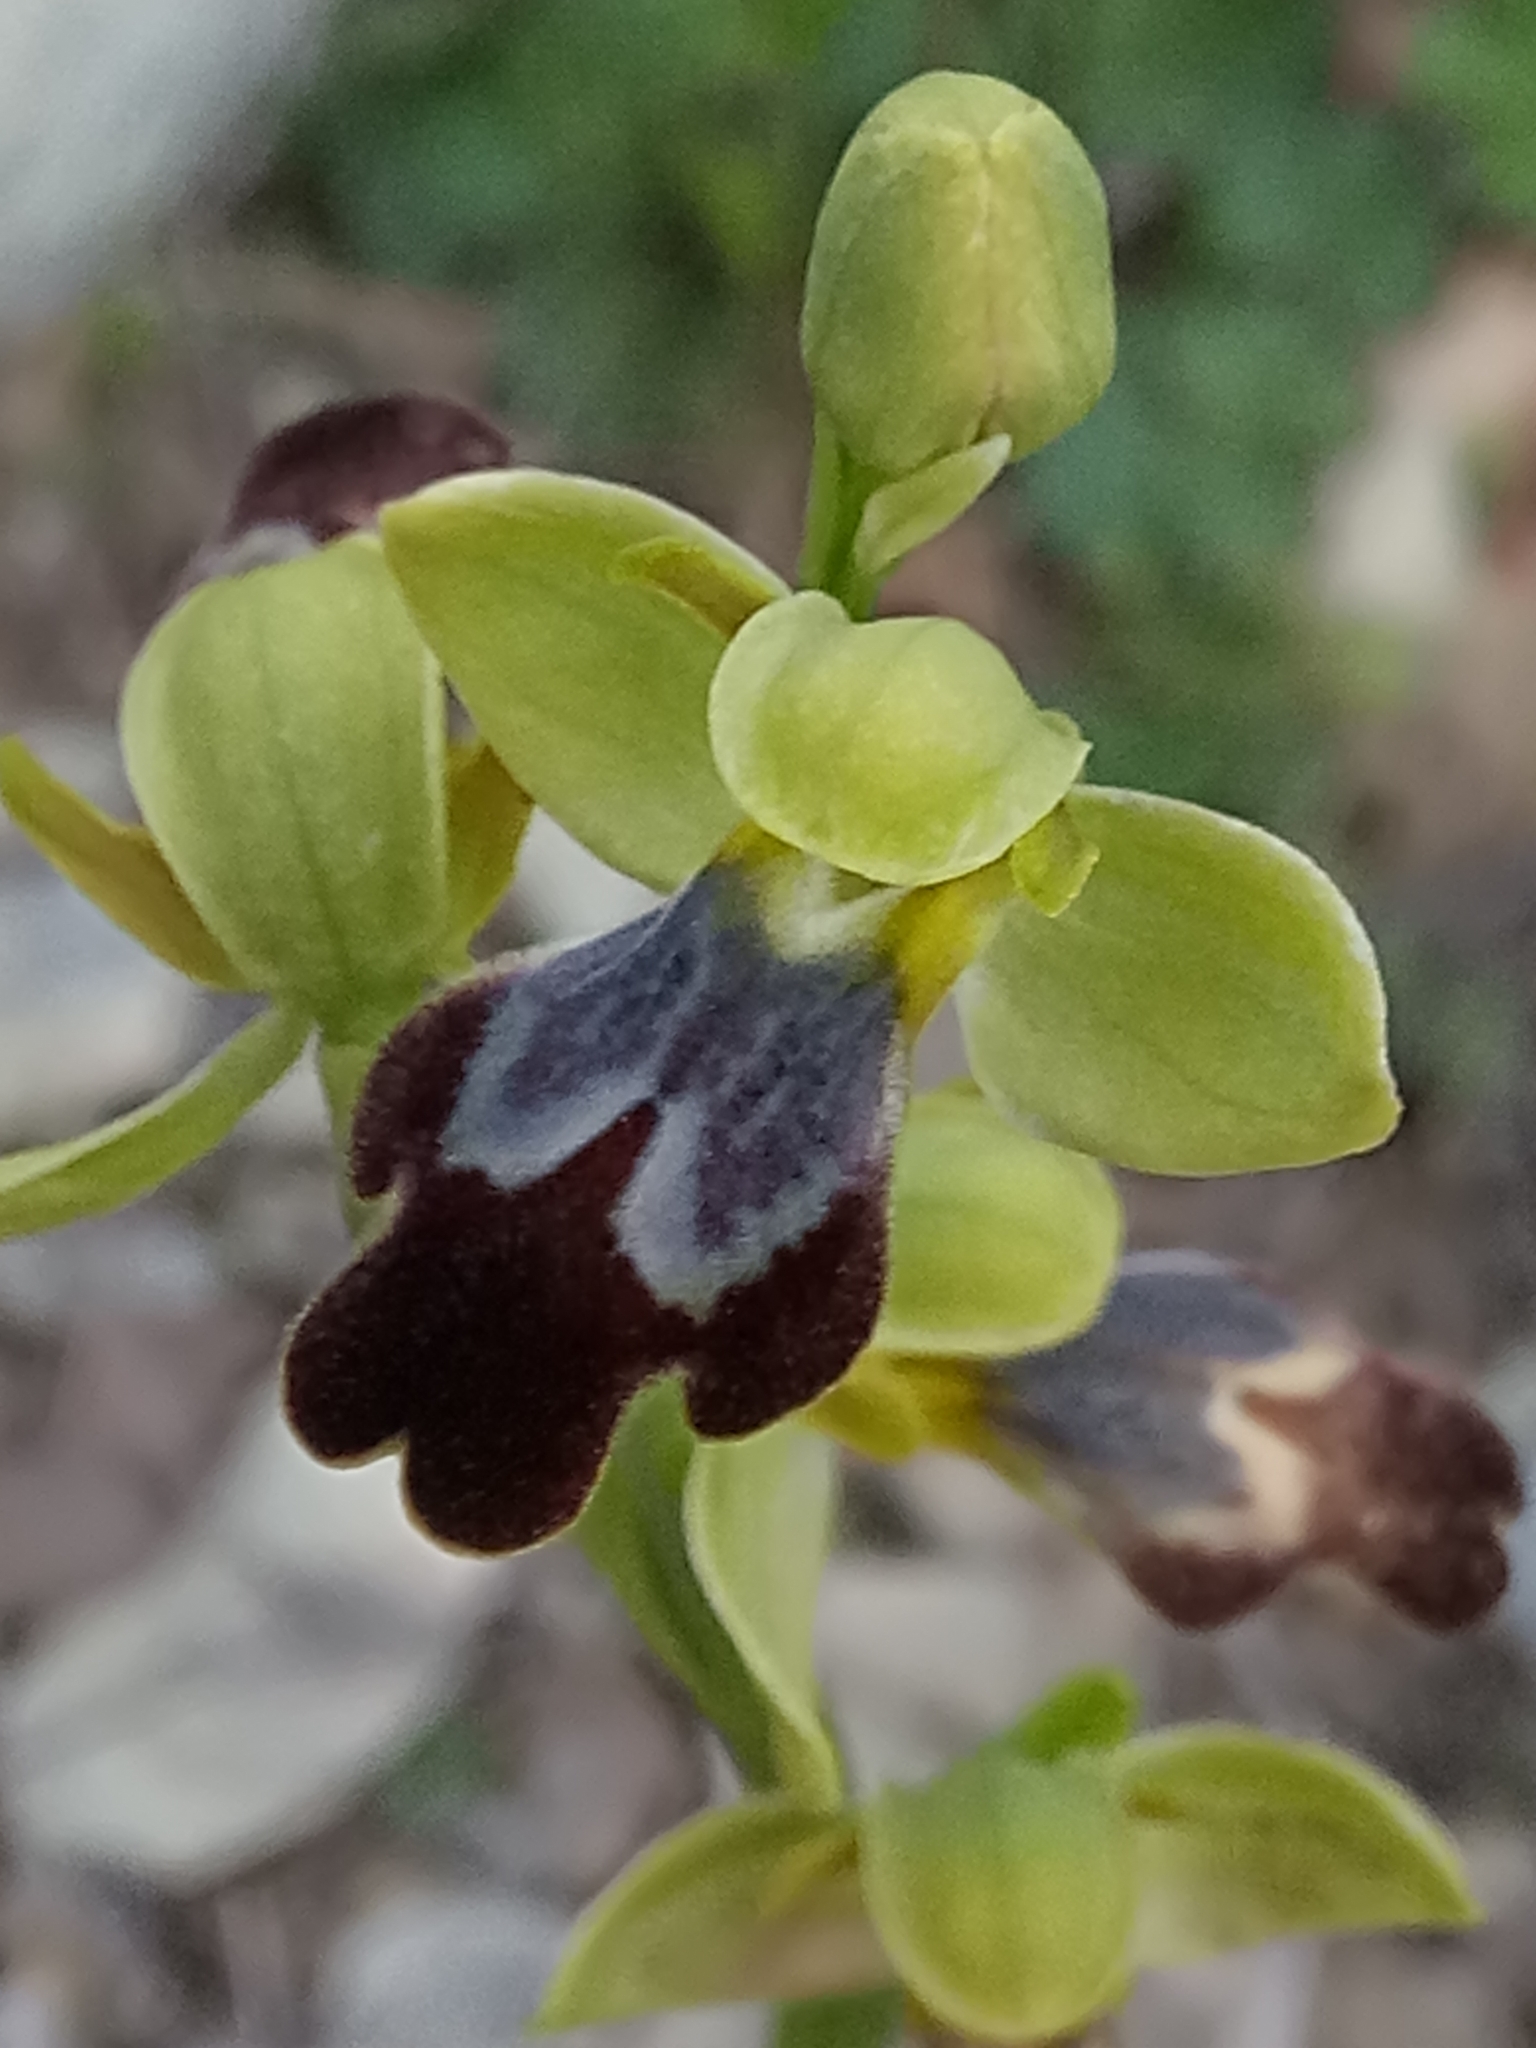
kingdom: Plantae
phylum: Tracheophyta
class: Liliopsida
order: Asparagales
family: Orchidaceae
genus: Ophrys
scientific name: Ophrys fusca
